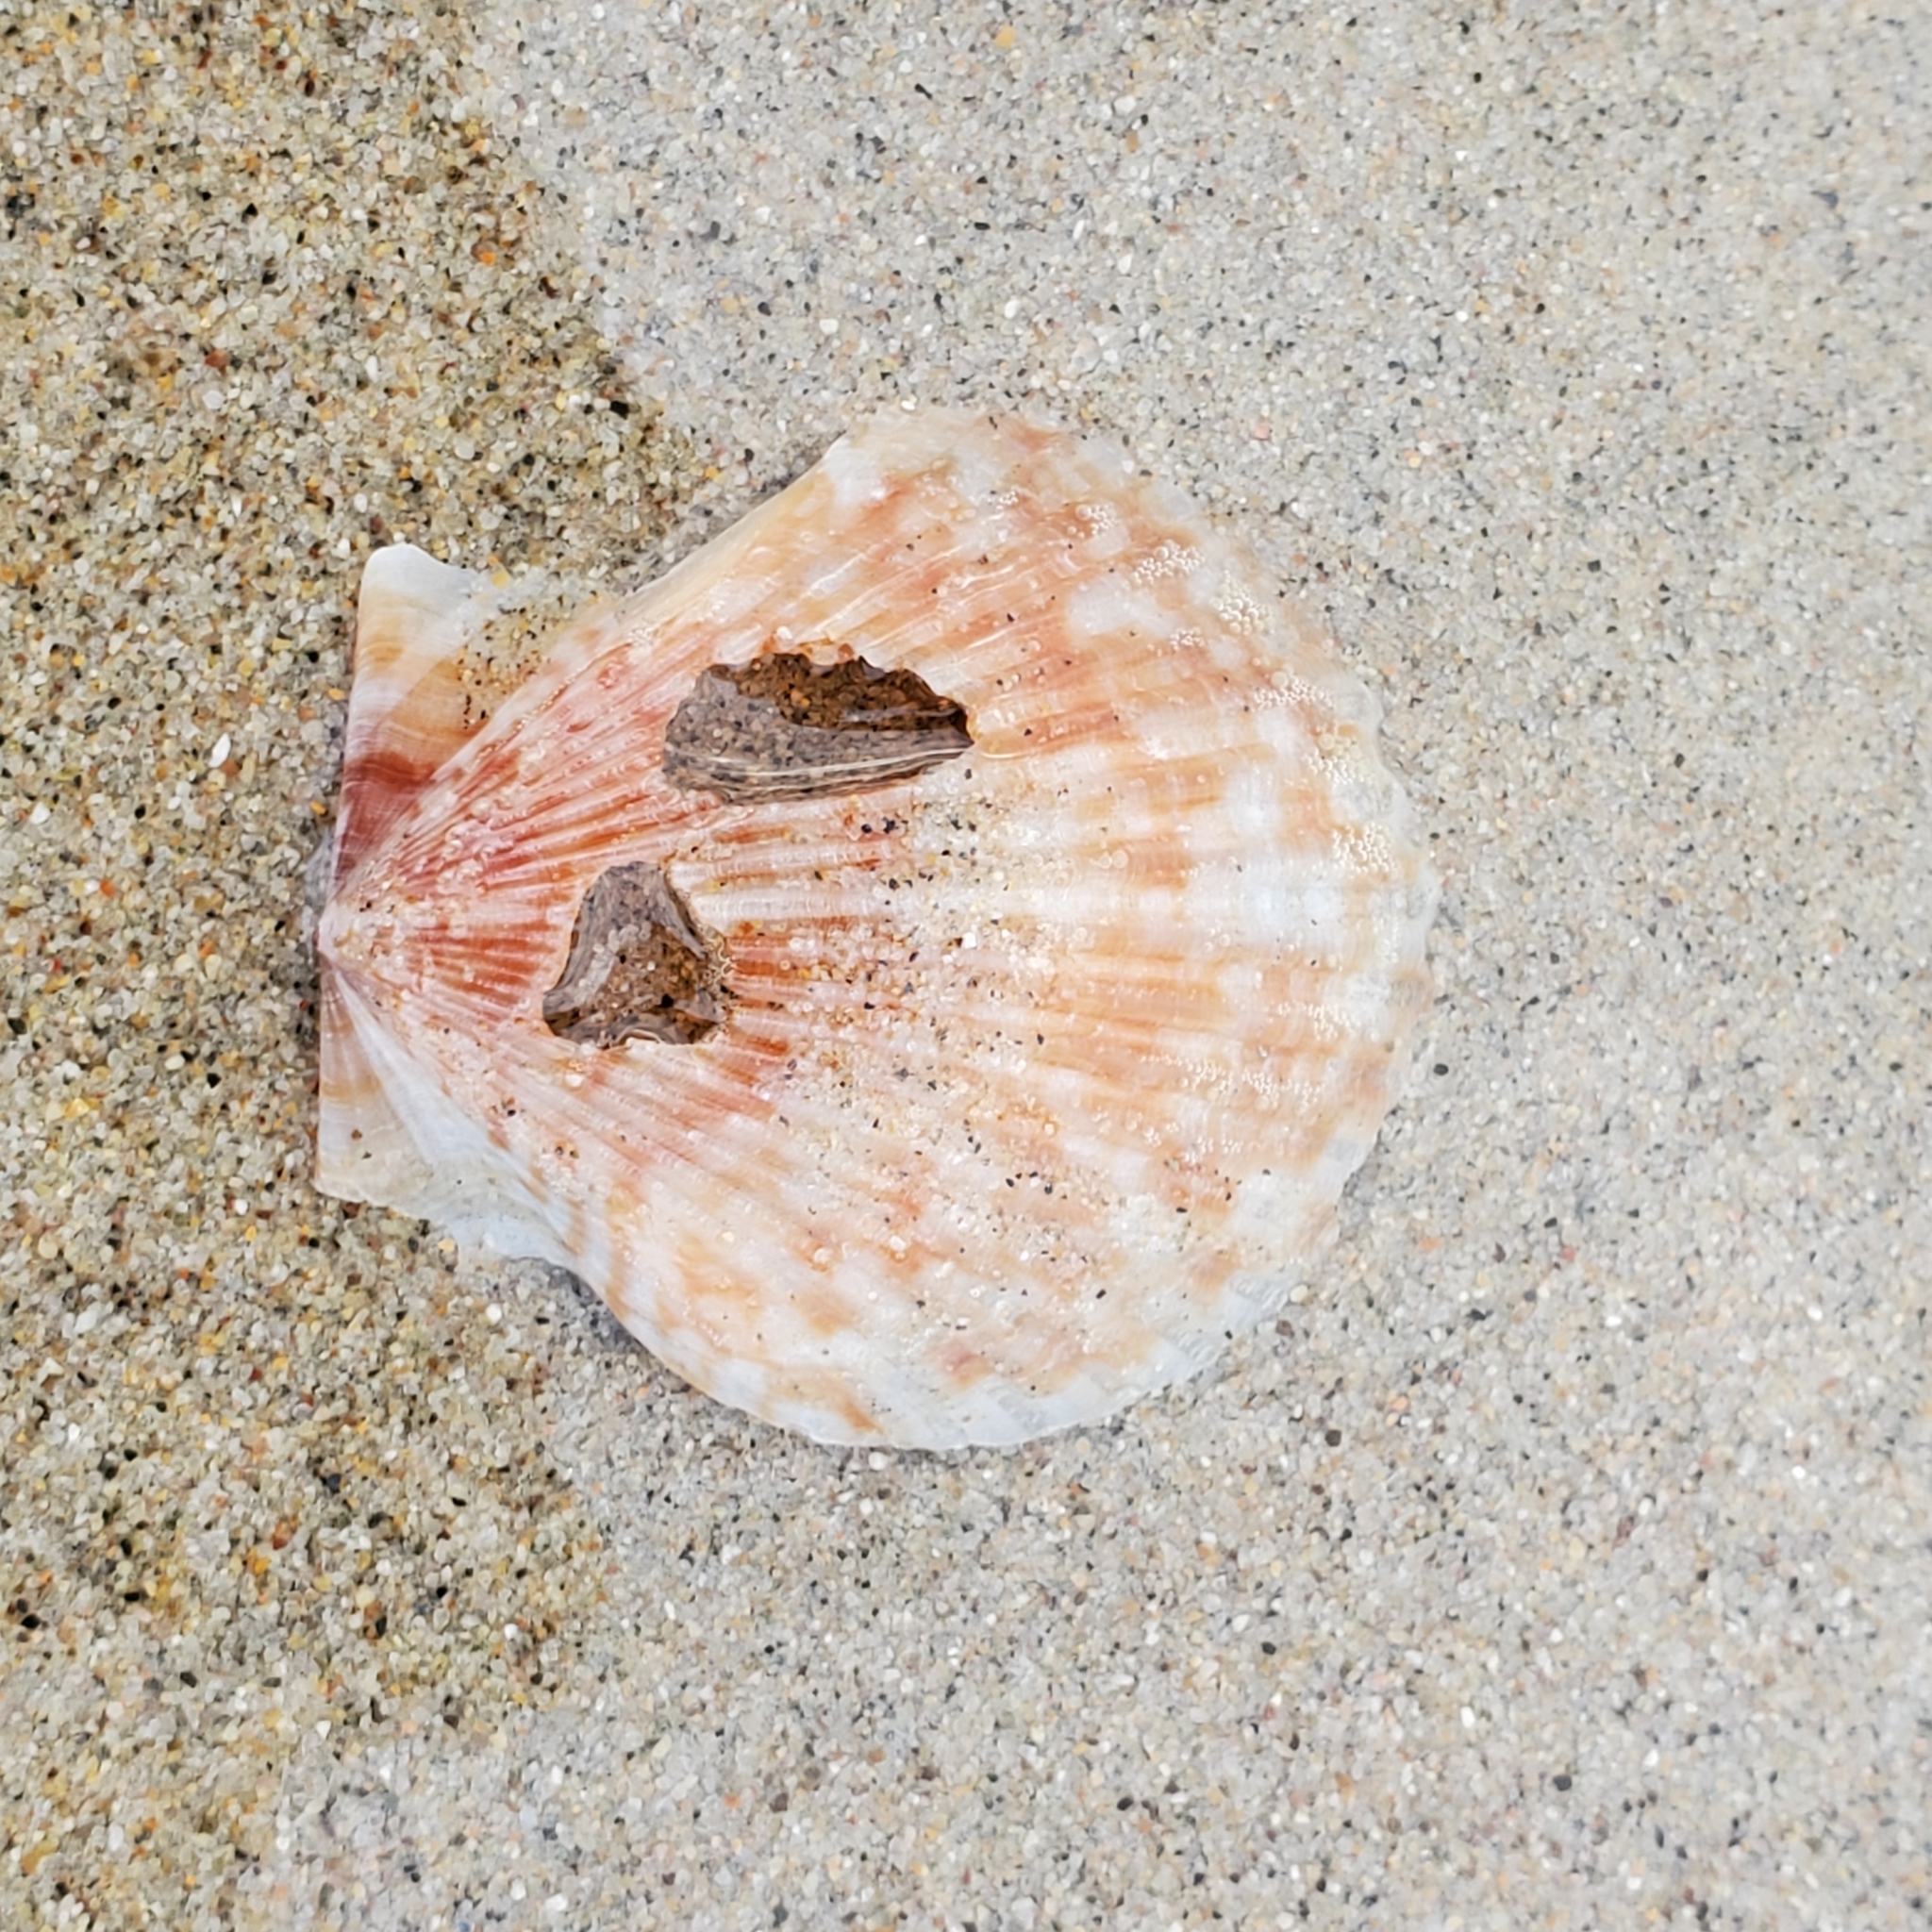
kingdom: Animalia
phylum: Mollusca
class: Bivalvia
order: Pectinida
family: Pectinidae
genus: Argopecten
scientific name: Argopecten ventricosus
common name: Catarina scallop
